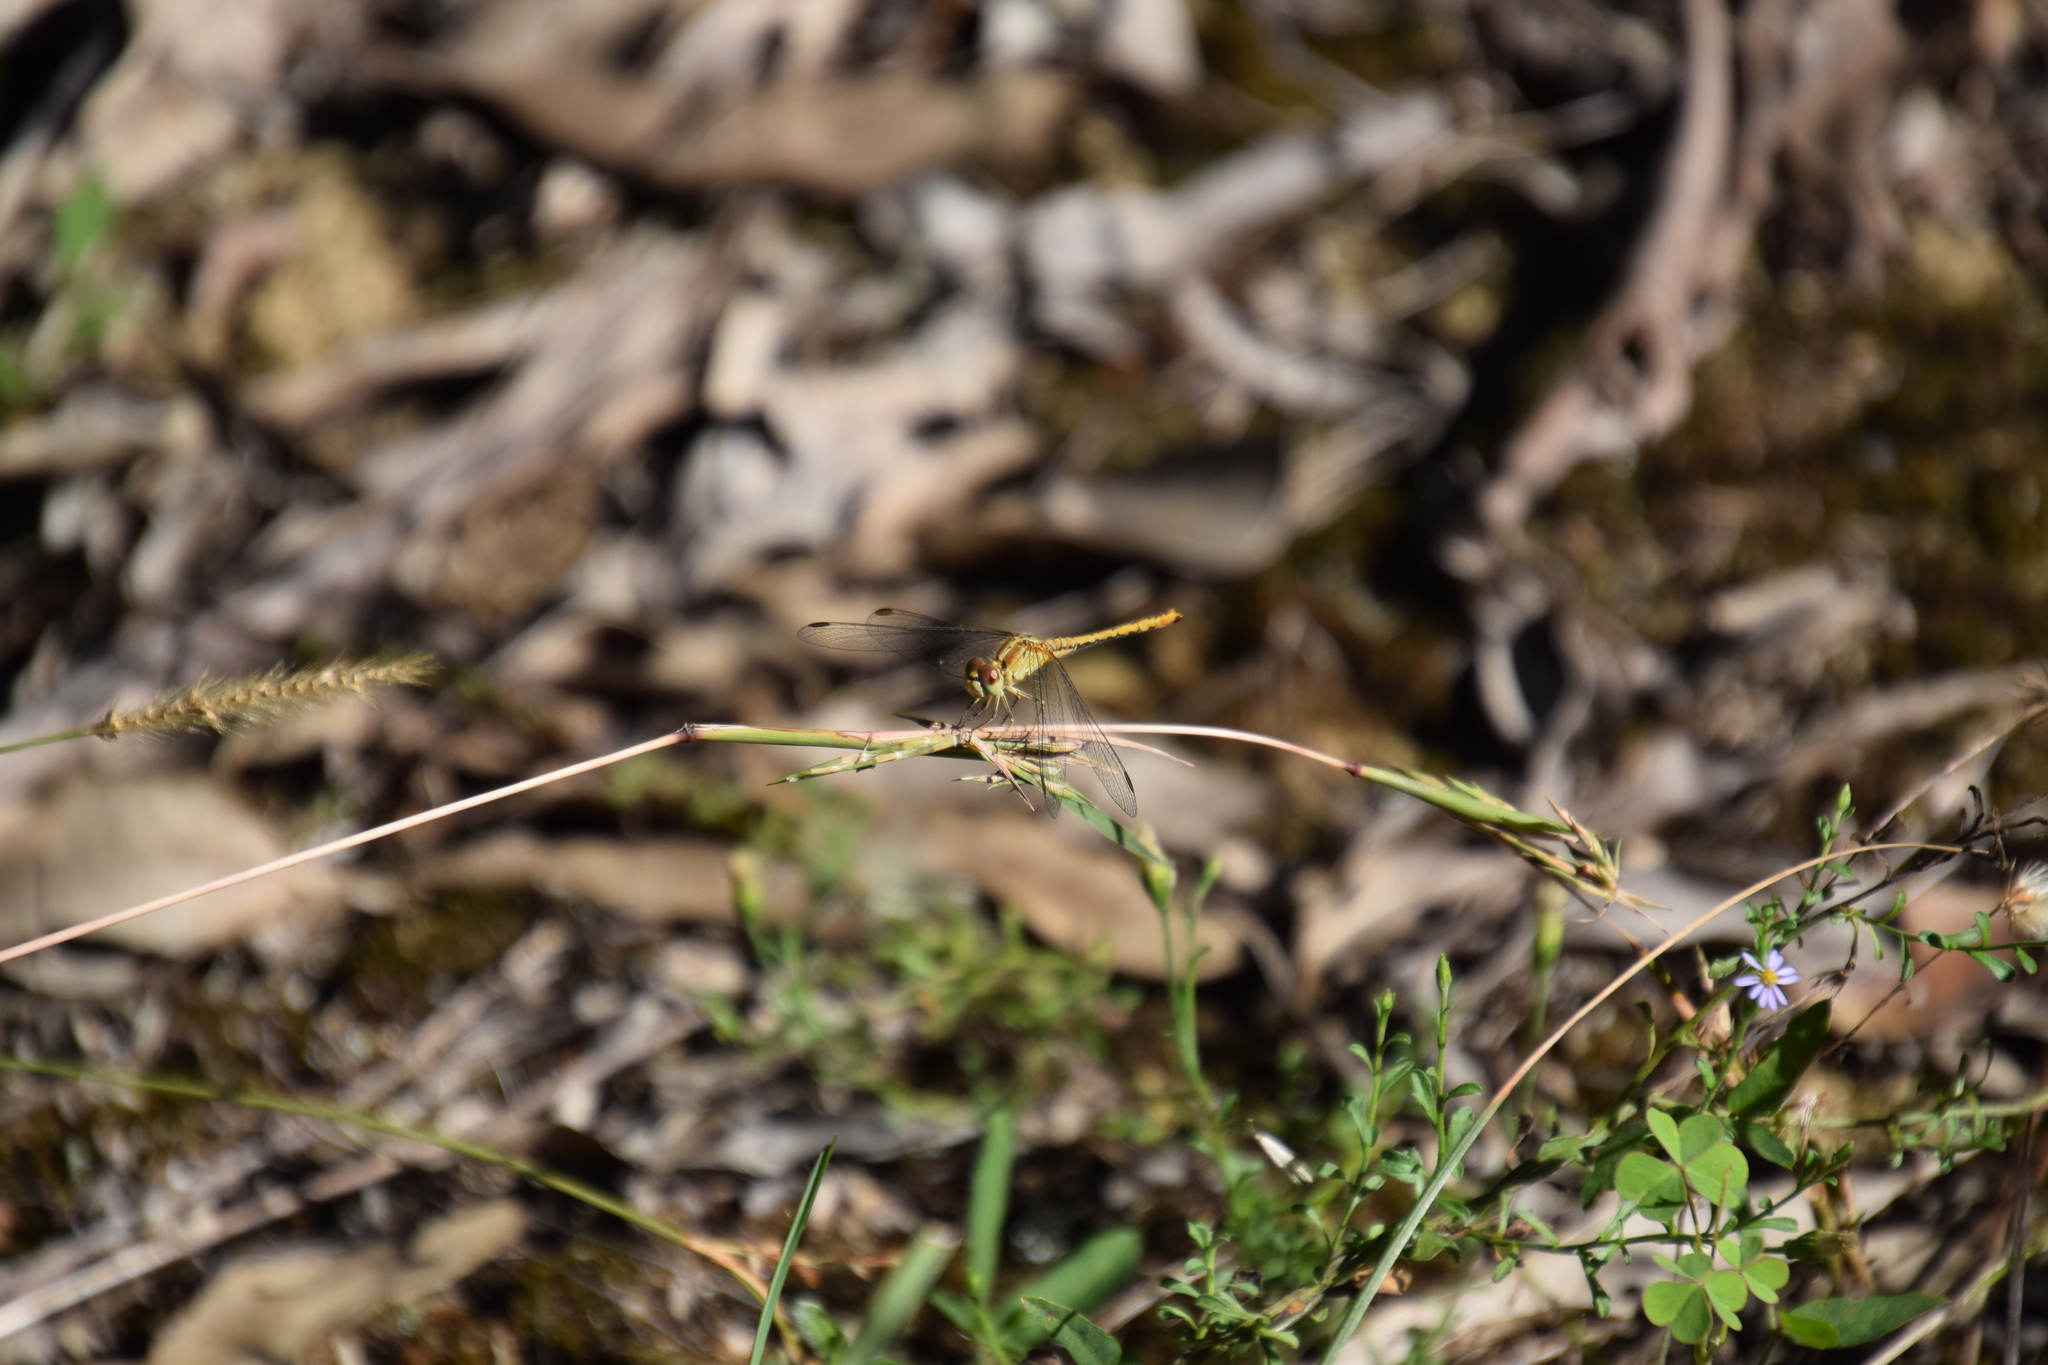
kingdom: Animalia
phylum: Arthropoda
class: Insecta
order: Odonata
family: Libellulidae
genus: Diplacodes
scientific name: Diplacodes bipunctata
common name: Red percher dragonfly
